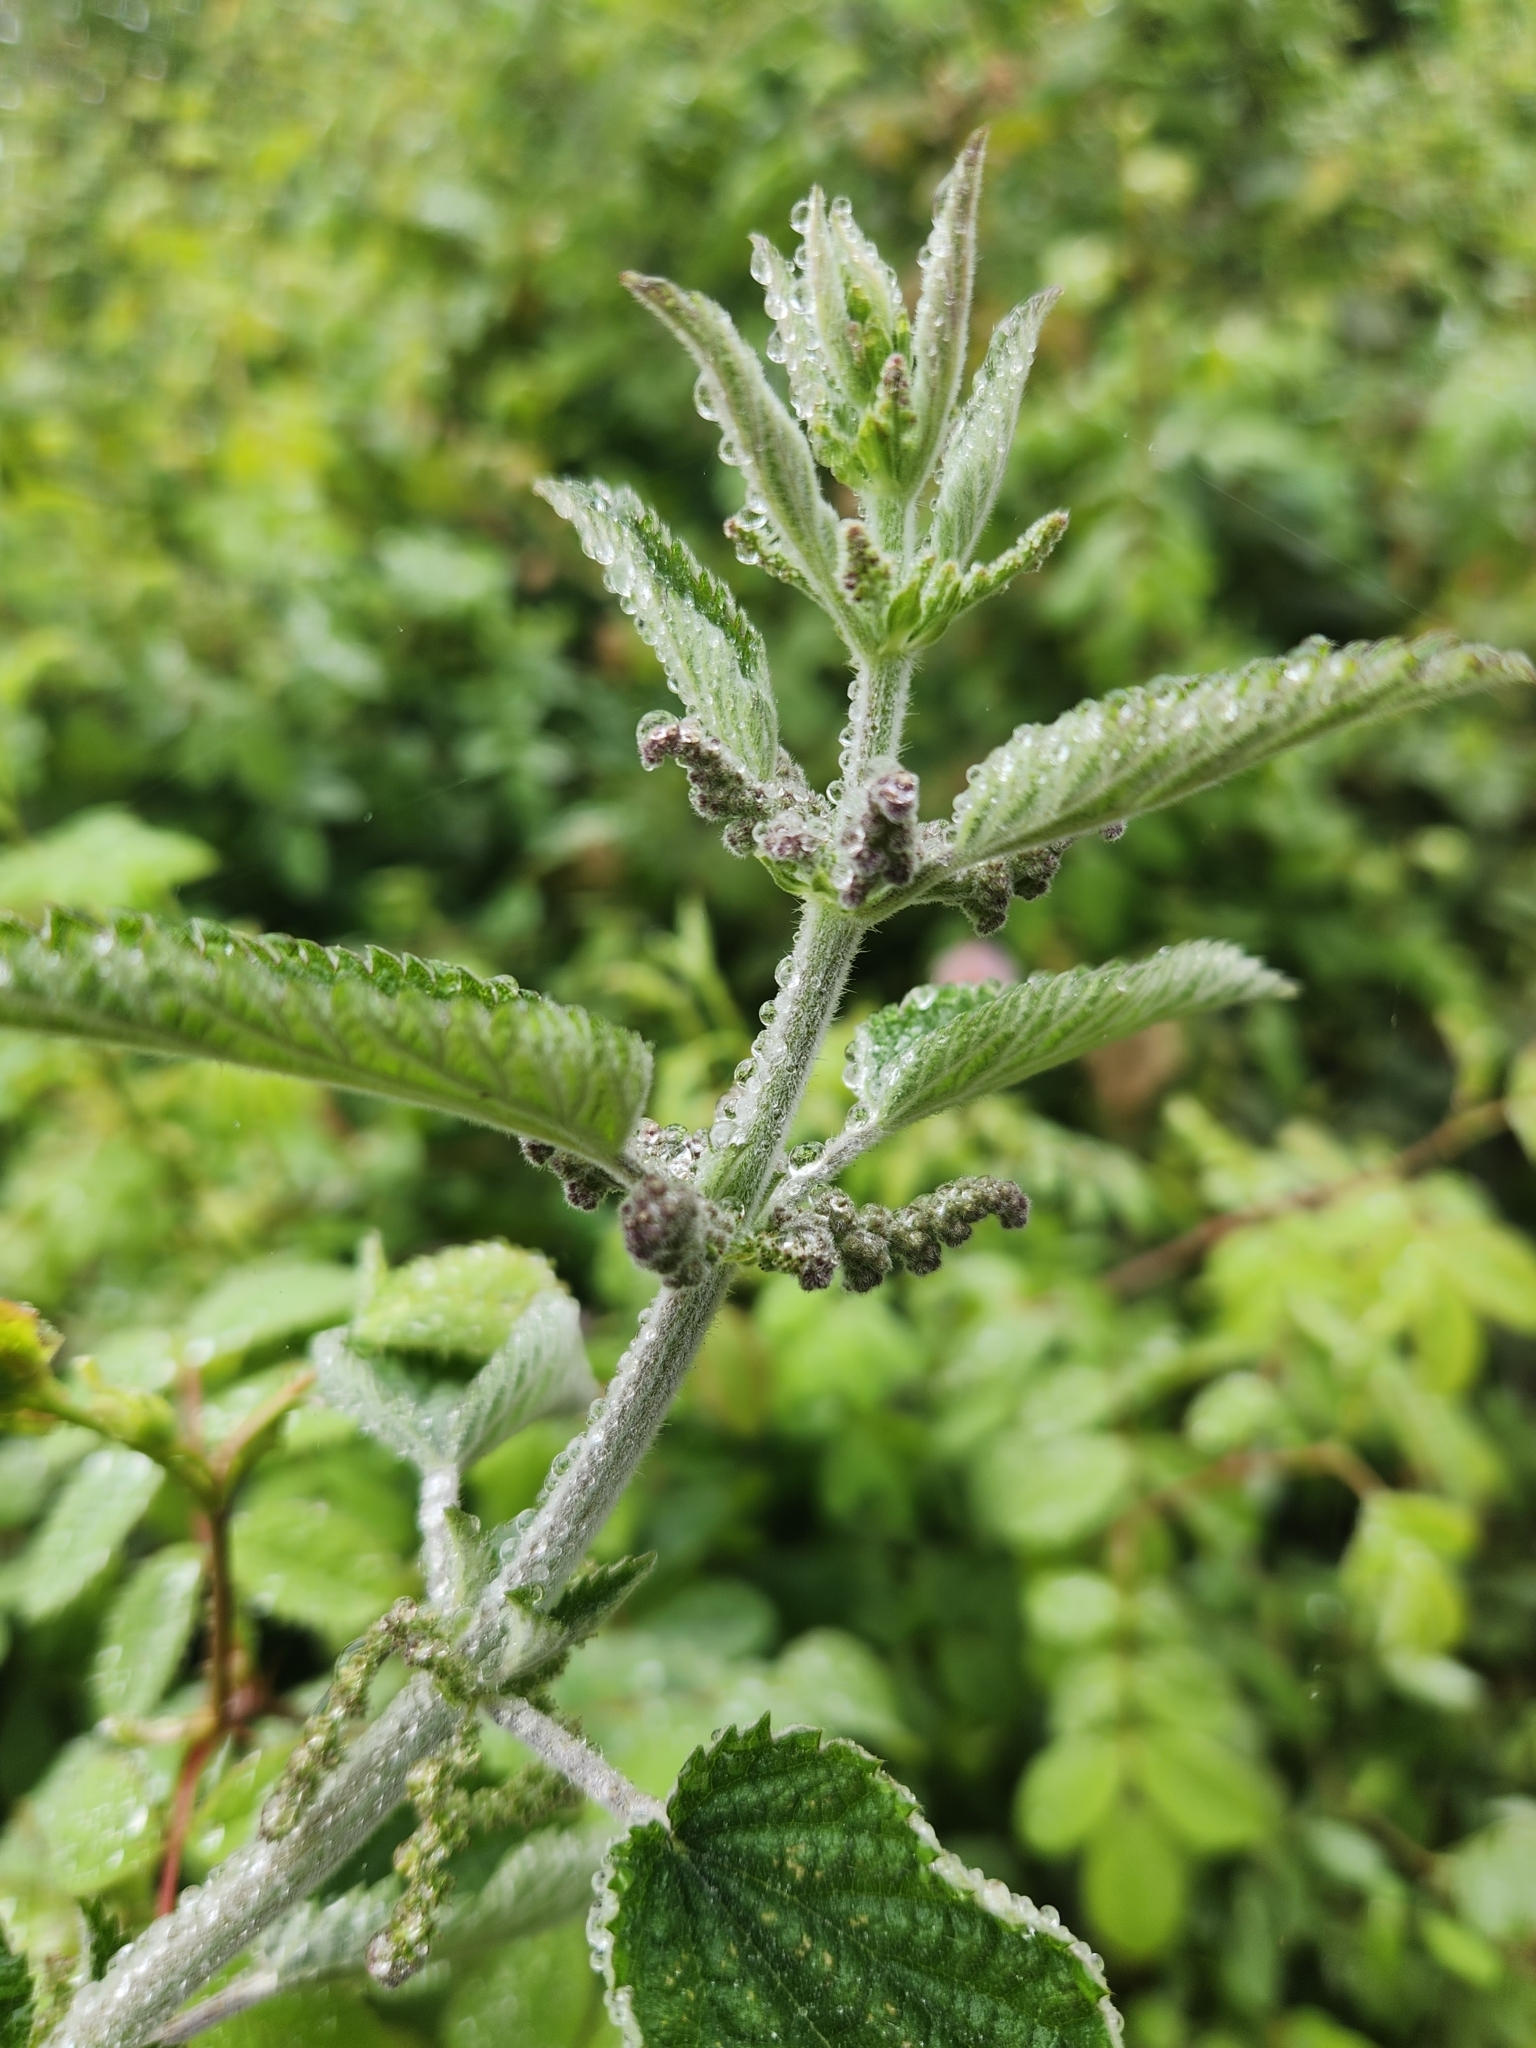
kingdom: Plantae
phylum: Tracheophyta
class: Magnoliopsida
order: Rosales
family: Urticaceae
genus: Urtica
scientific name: Urtica dioica
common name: Common nettle
